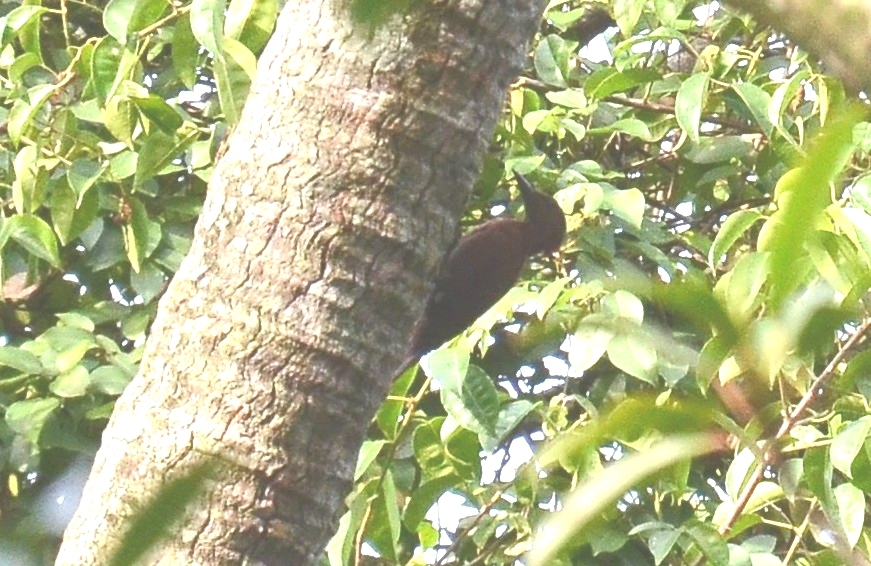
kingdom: Animalia
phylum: Chordata
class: Aves
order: Piciformes
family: Picidae
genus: Micropternus
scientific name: Micropternus brachyurus
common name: Rufous woodpecker
